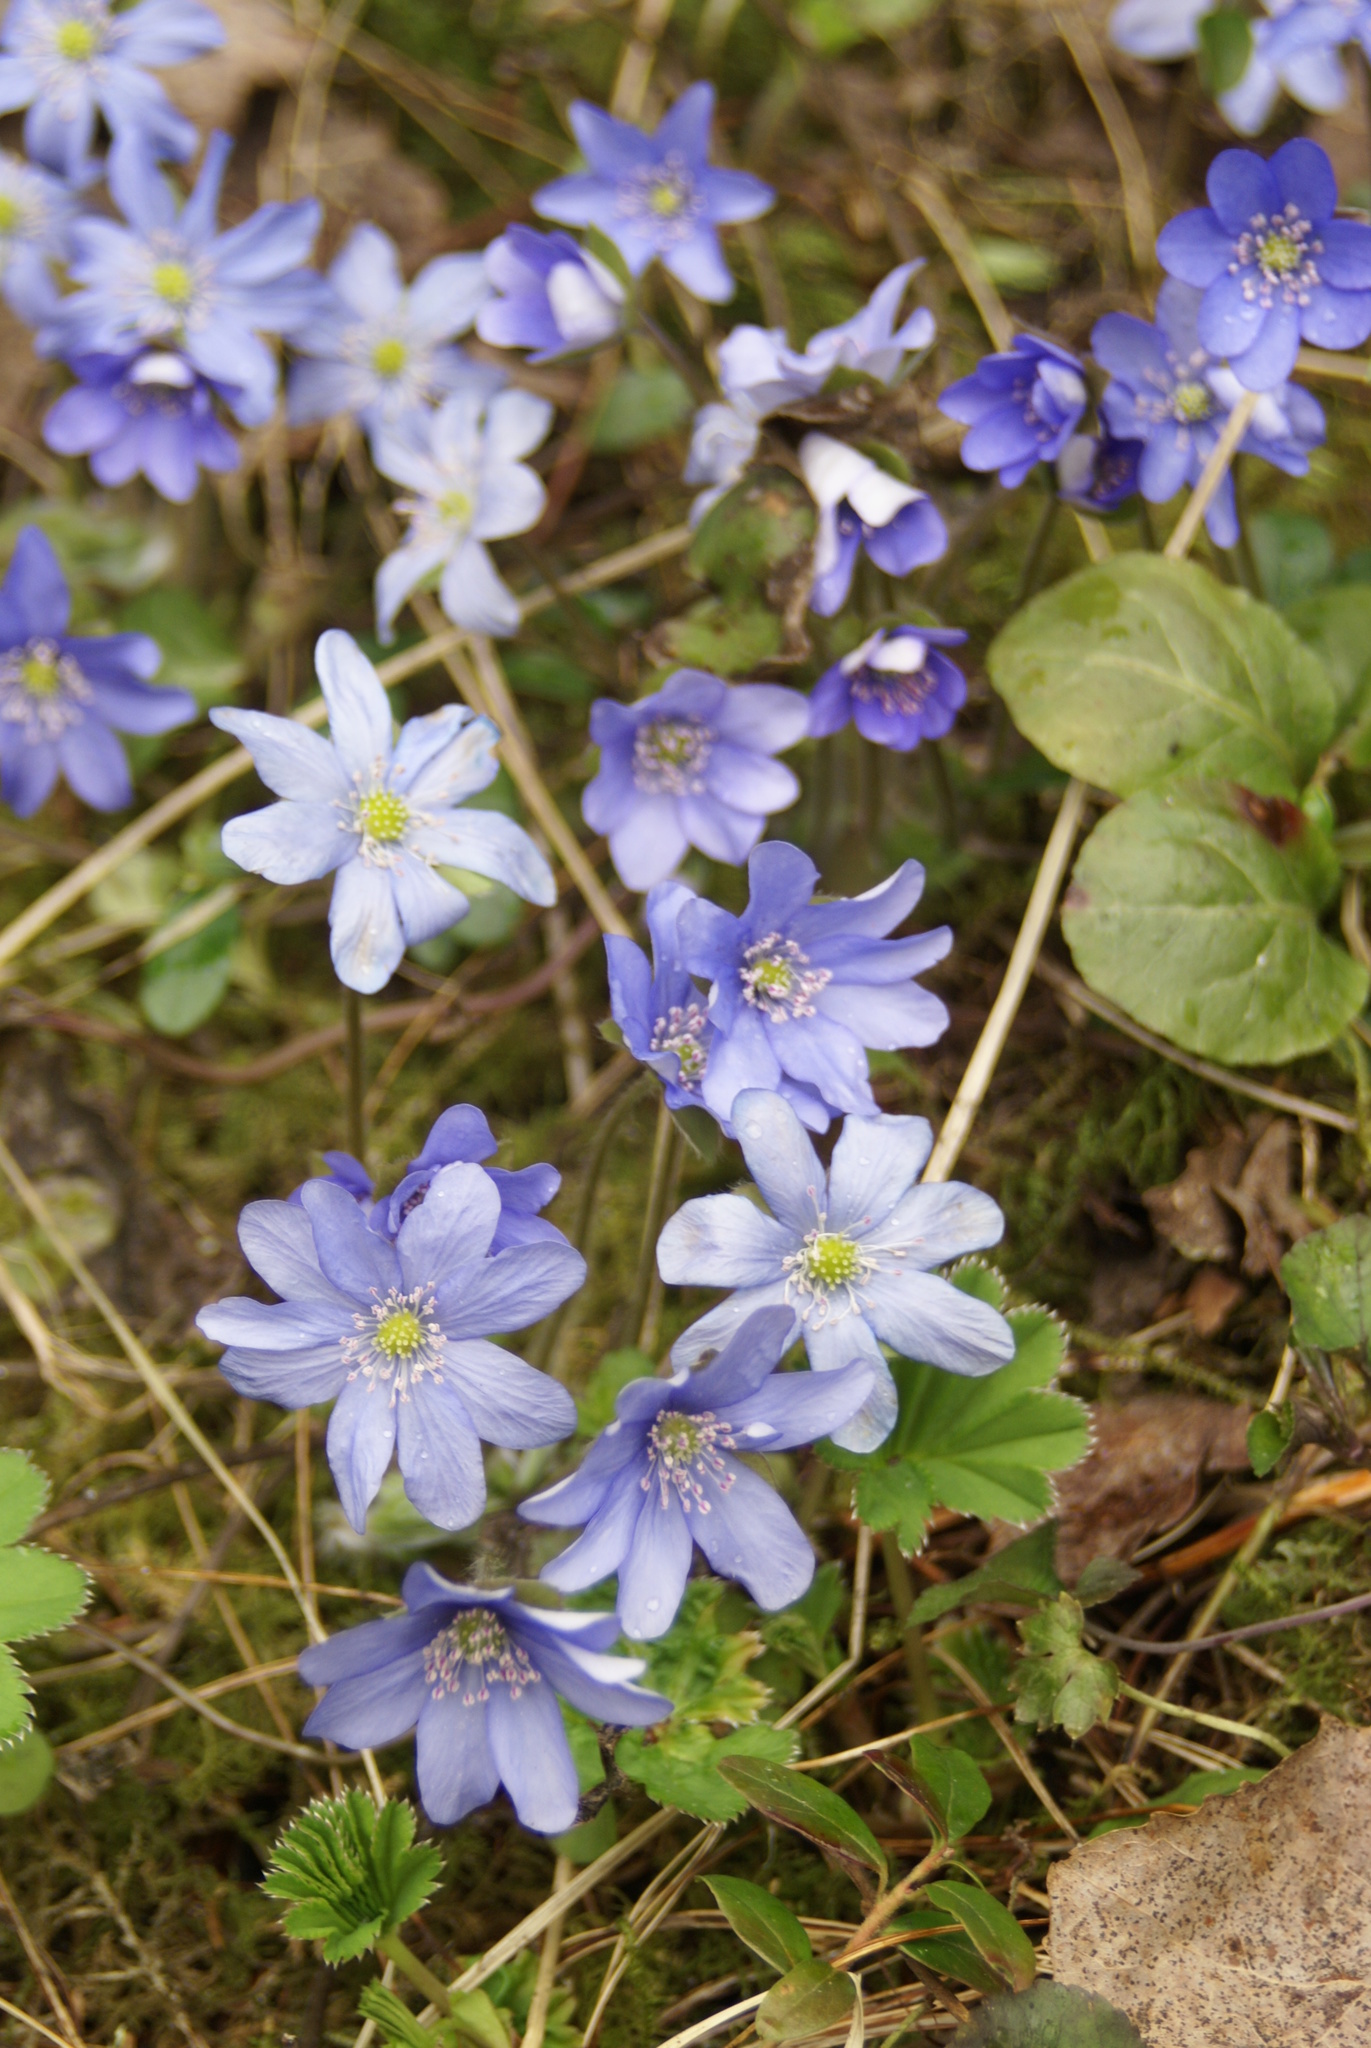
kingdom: Plantae
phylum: Tracheophyta
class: Magnoliopsida
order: Ranunculales
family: Ranunculaceae
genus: Hepatica
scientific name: Hepatica nobilis
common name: Liverleaf
